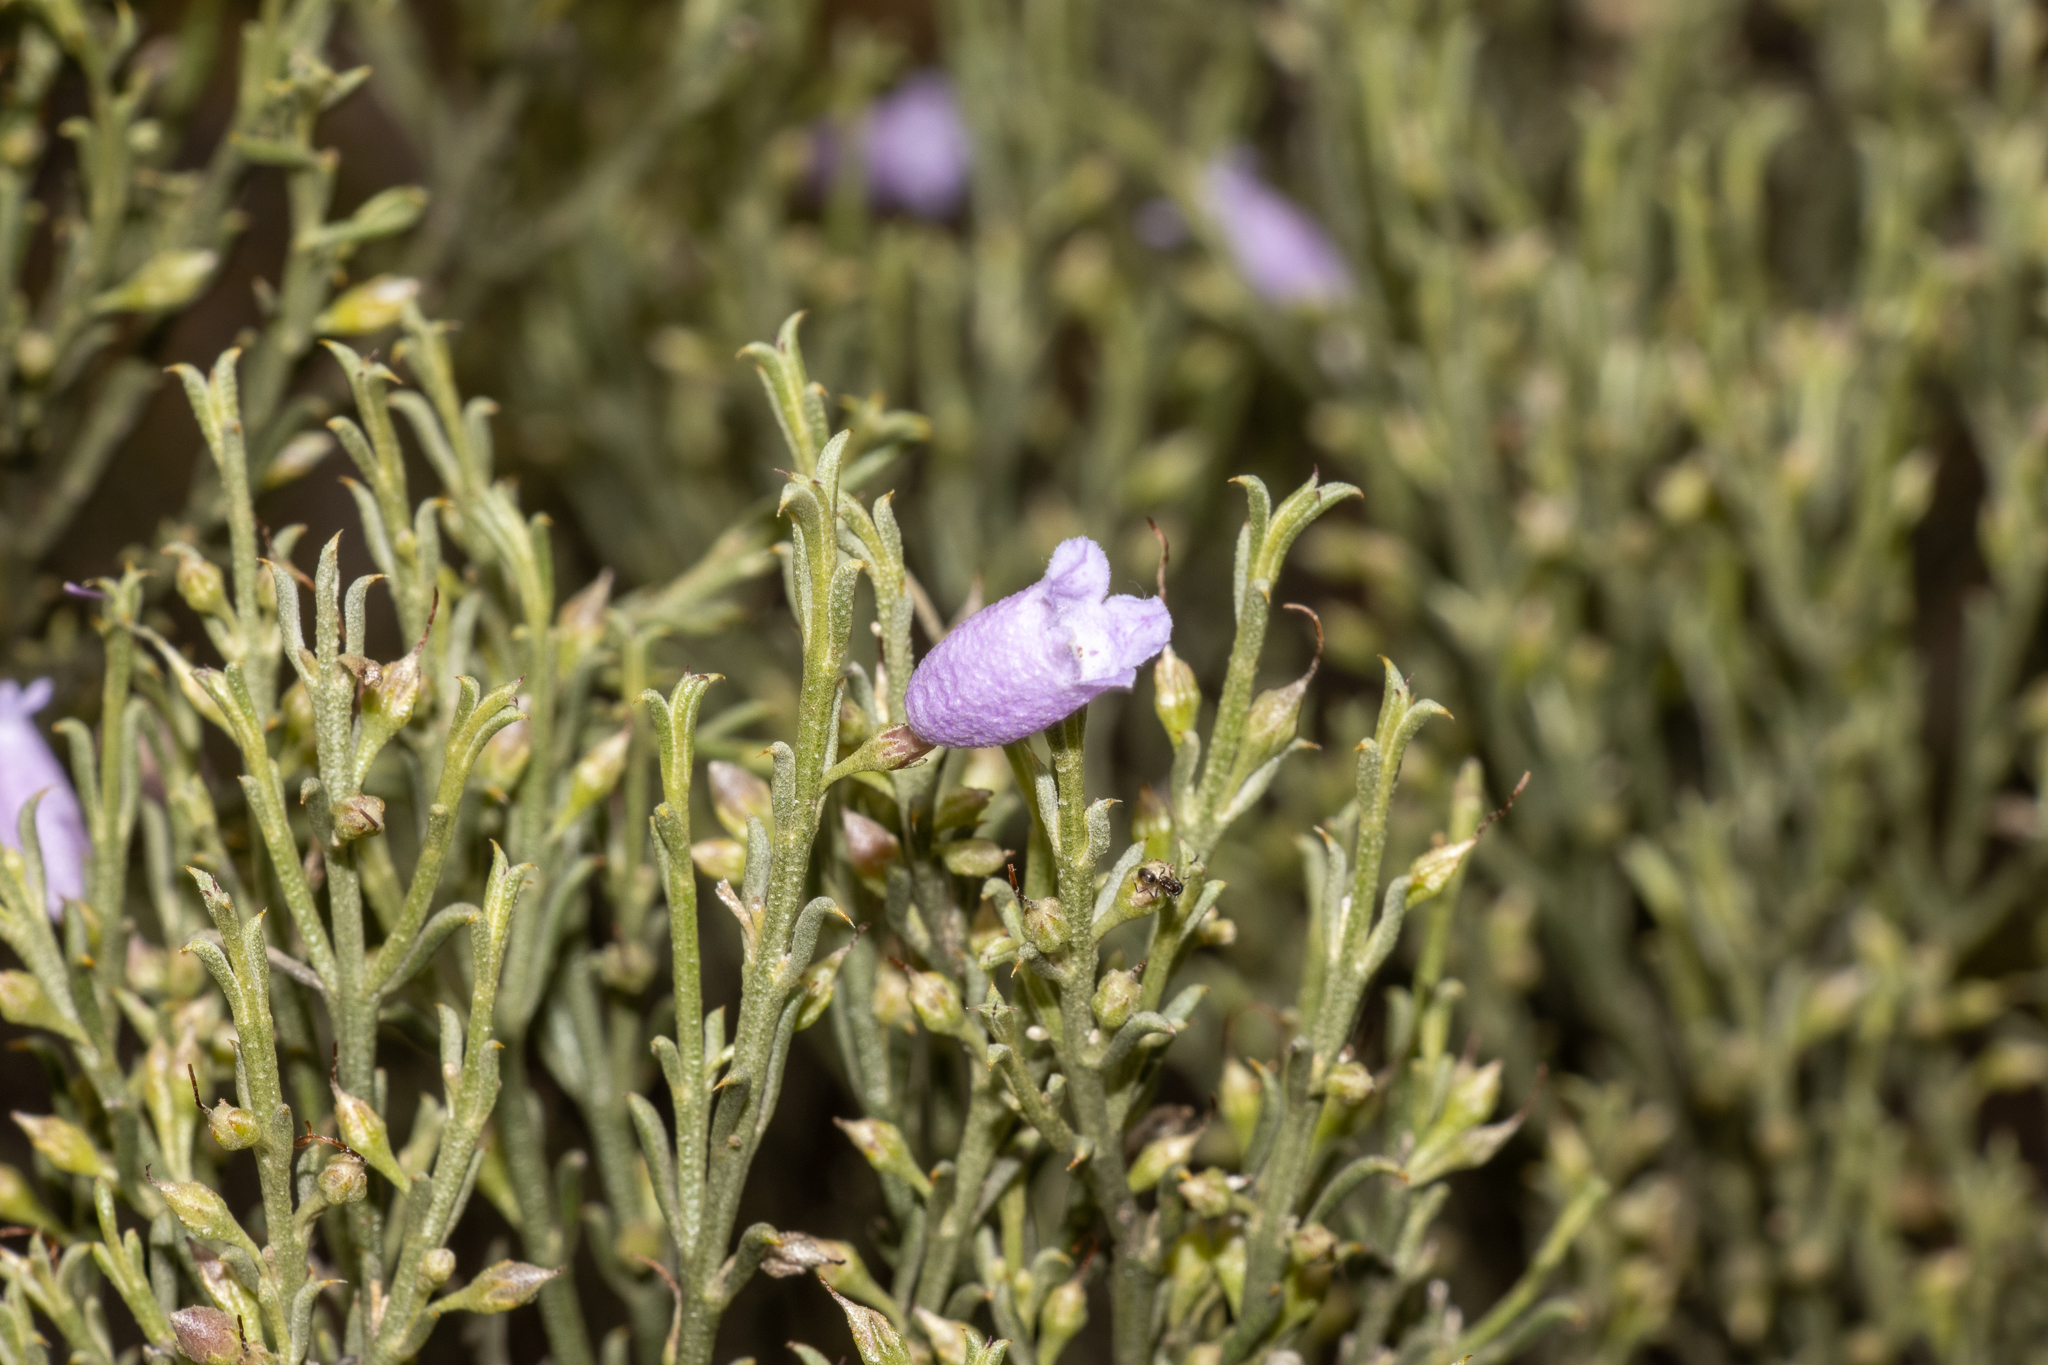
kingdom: Plantae
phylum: Tracheophyta
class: Magnoliopsida
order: Lamiales
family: Scrophulariaceae
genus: Eremophila
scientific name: Eremophila scoparia
